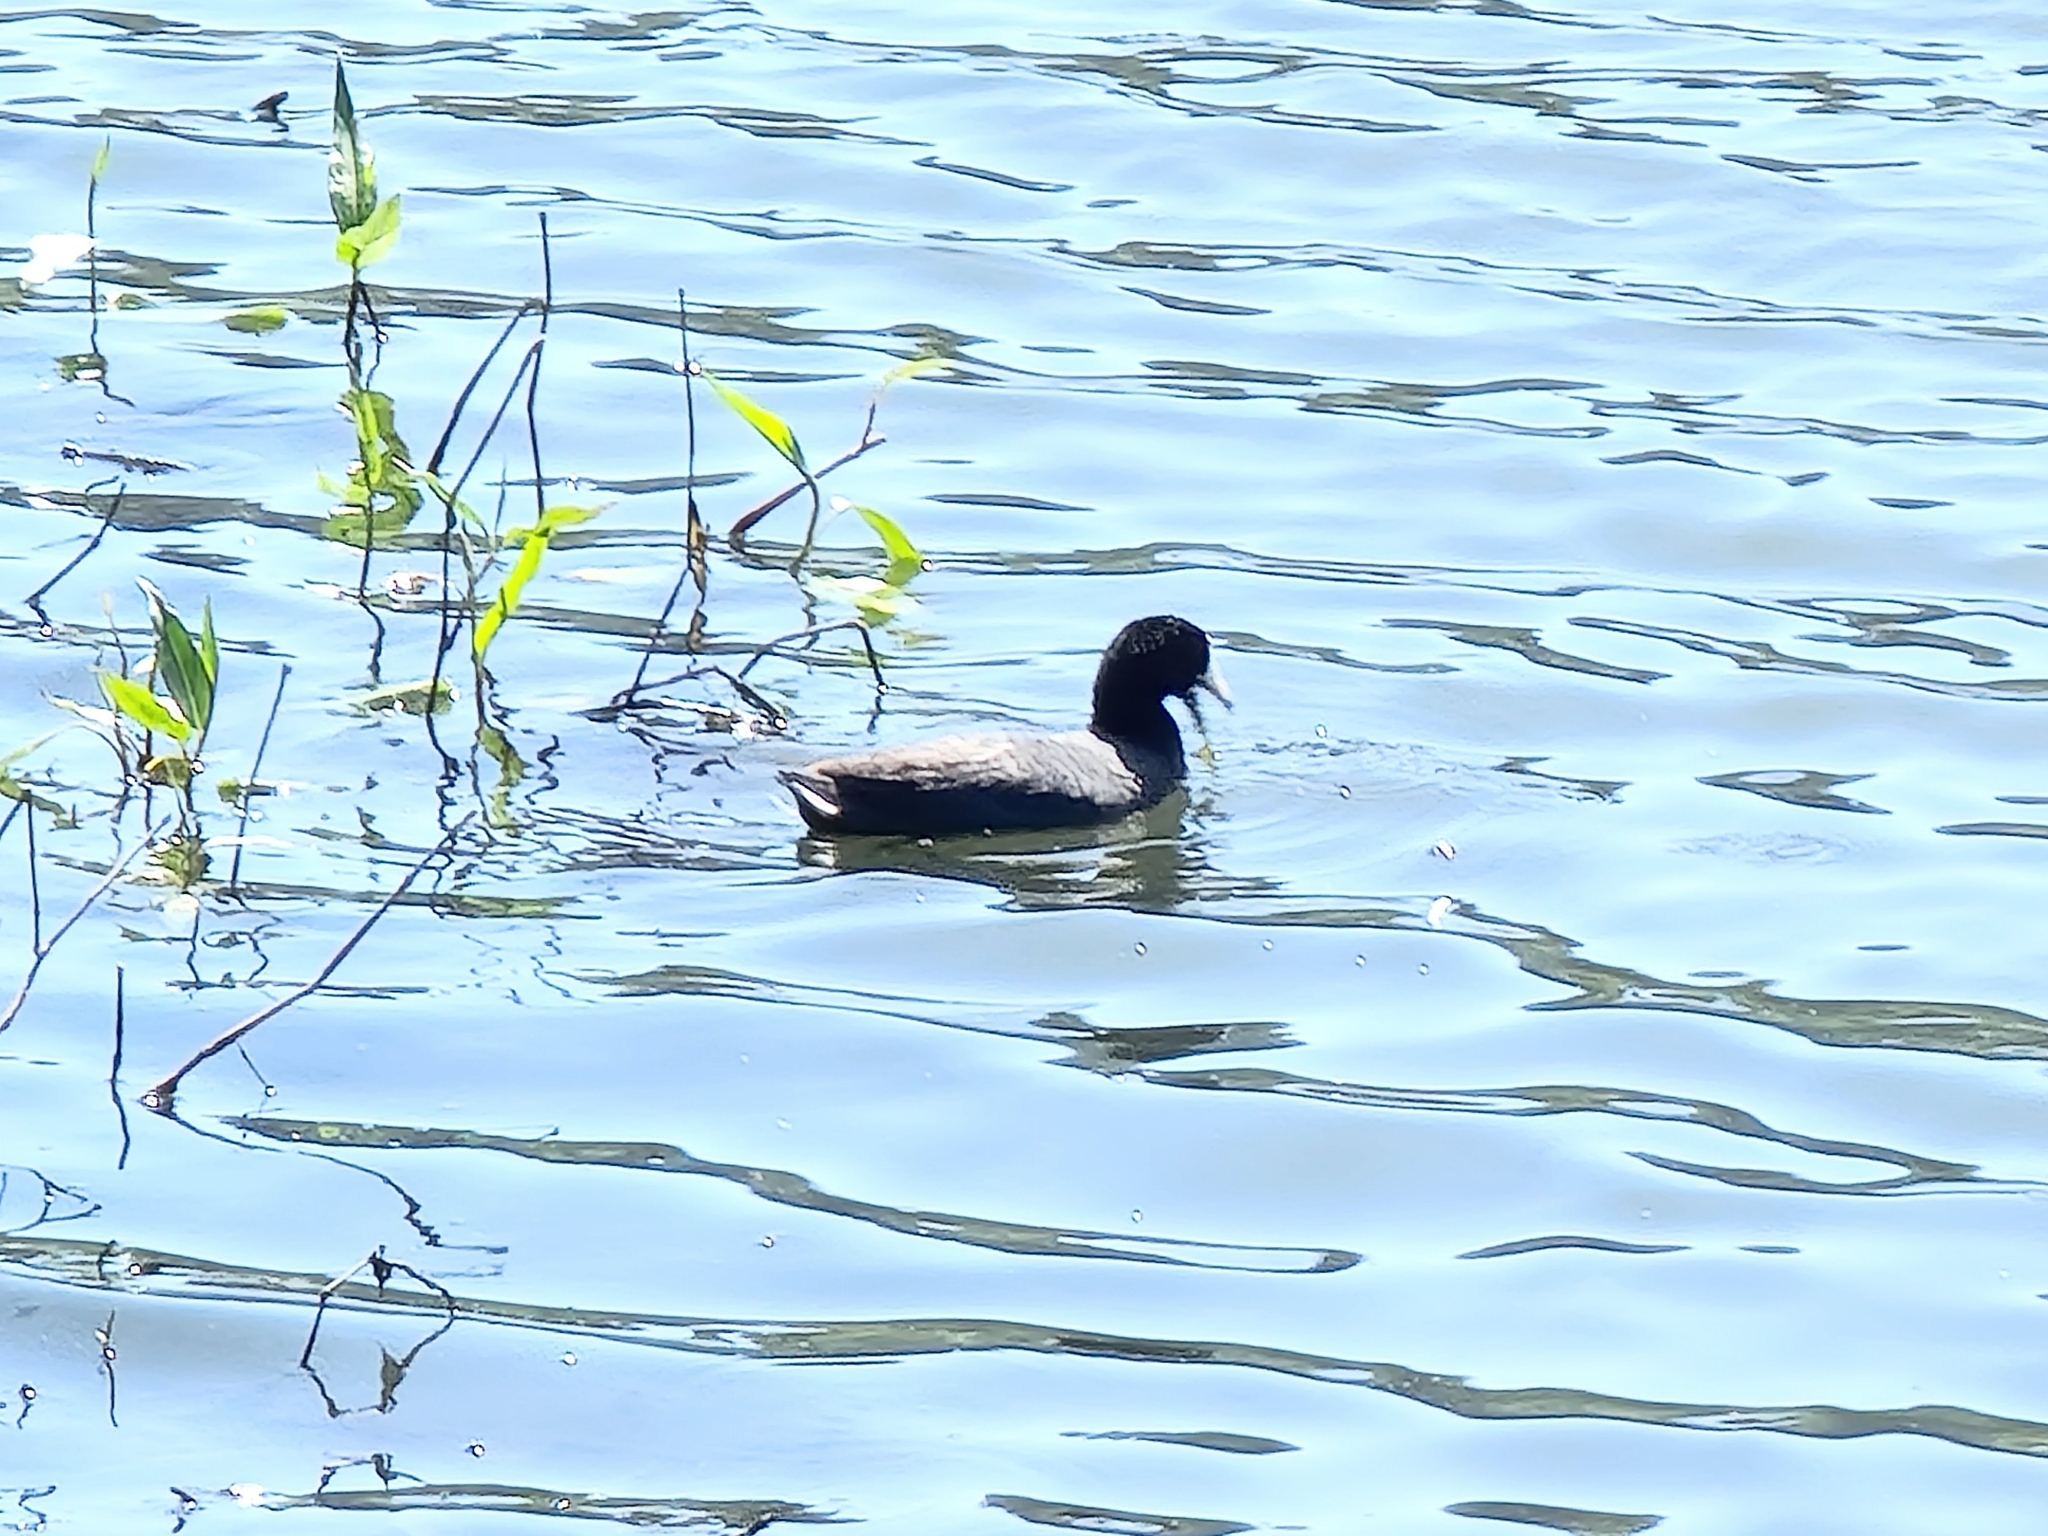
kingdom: Animalia
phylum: Chordata
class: Aves
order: Gruiformes
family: Rallidae
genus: Fulica
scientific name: Fulica americana
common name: American coot
